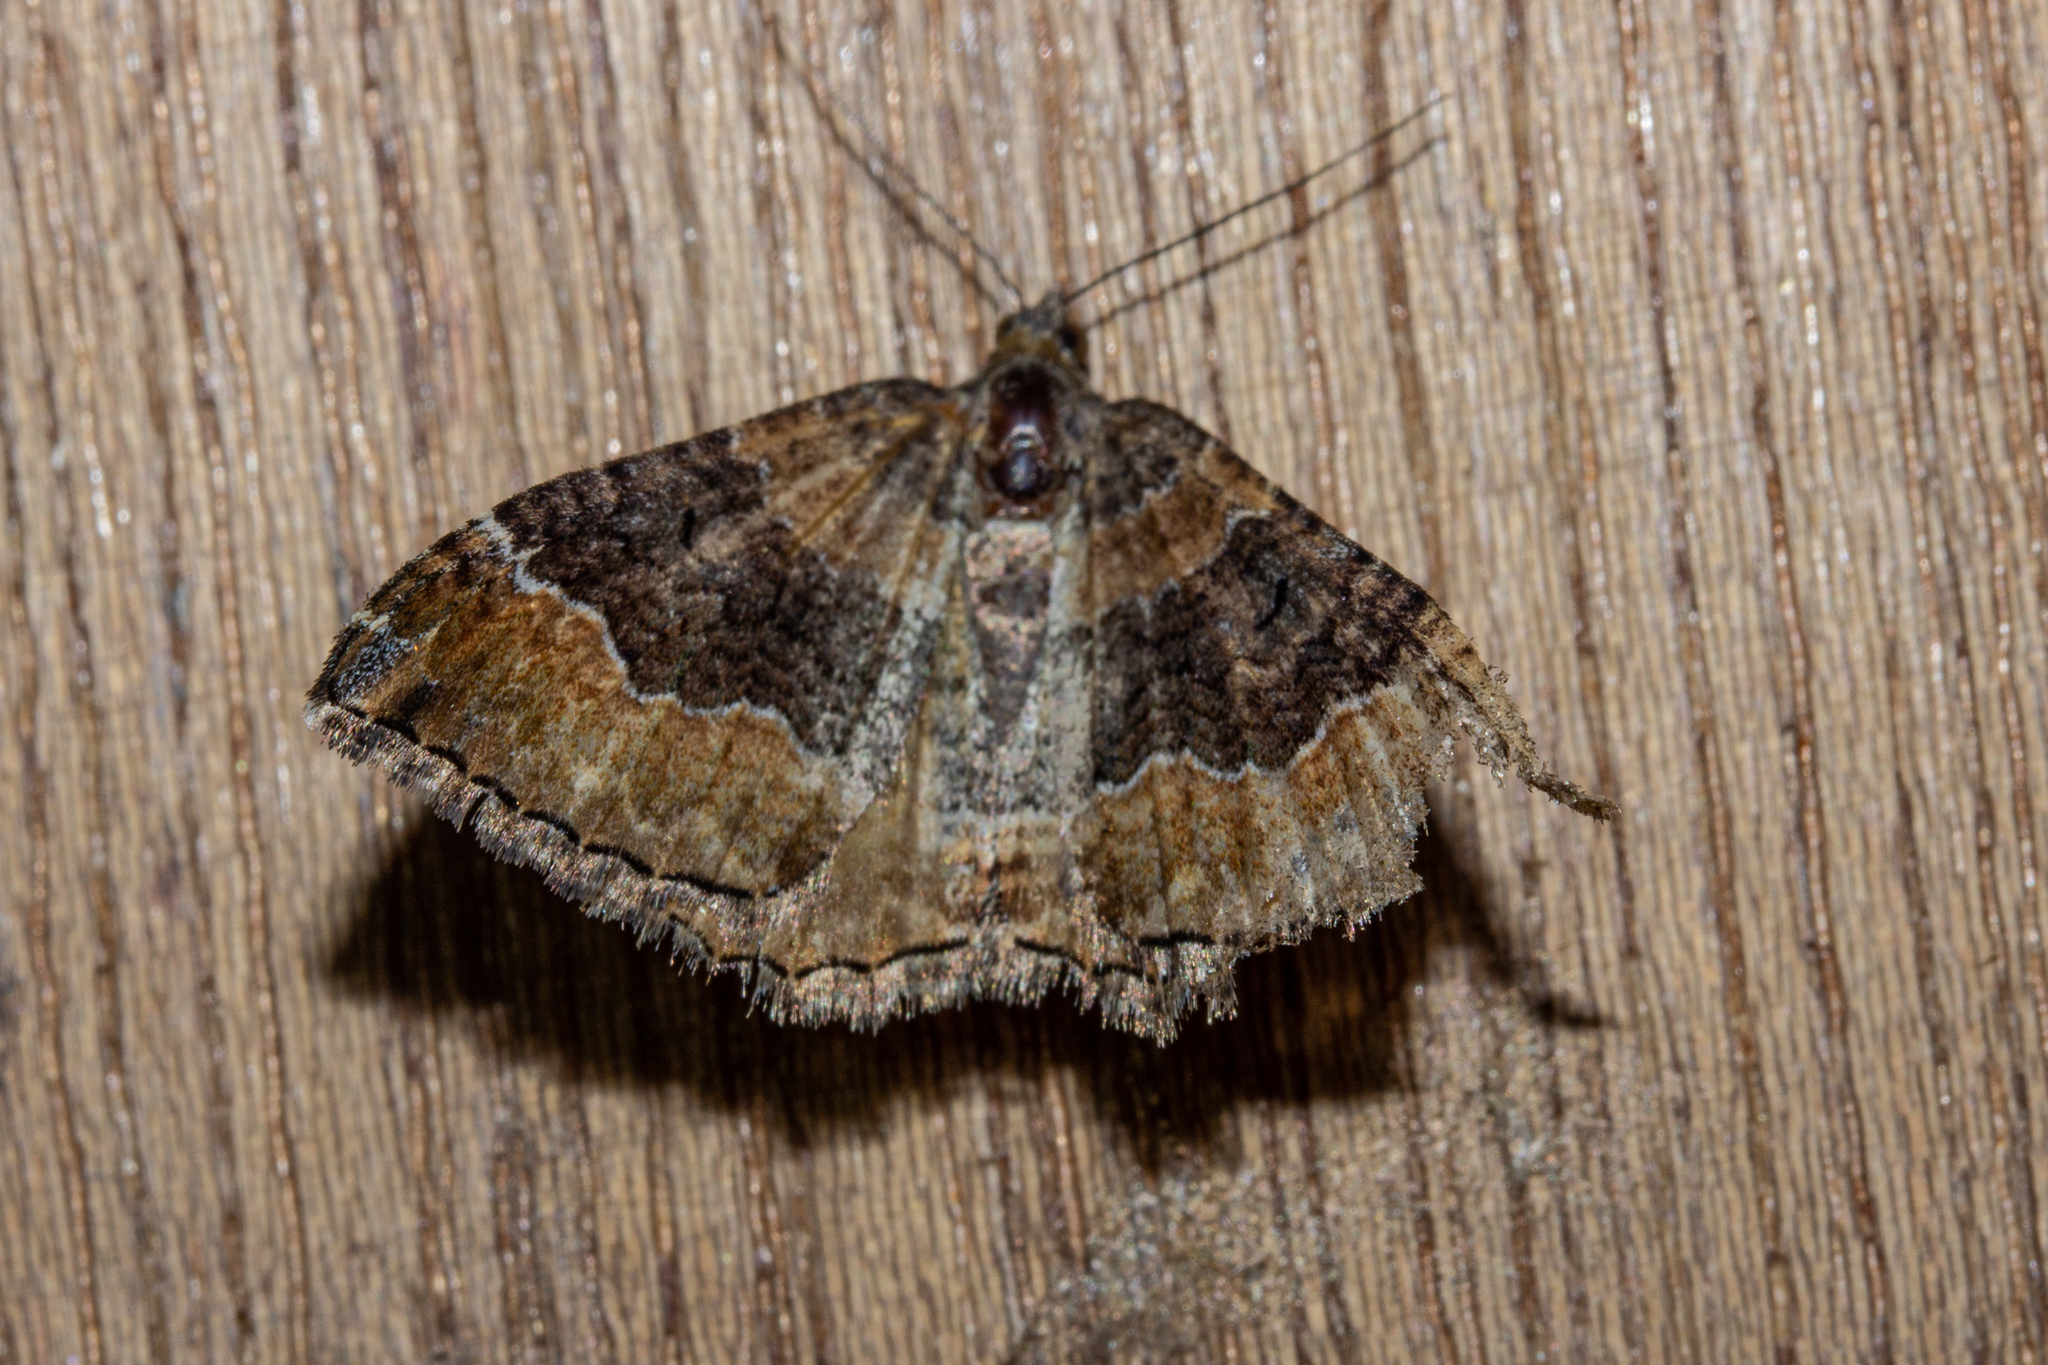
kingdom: Animalia
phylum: Arthropoda
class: Insecta
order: Lepidoptera
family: Geometridae
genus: Hydriomena
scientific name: Hydriomena deltoidata
